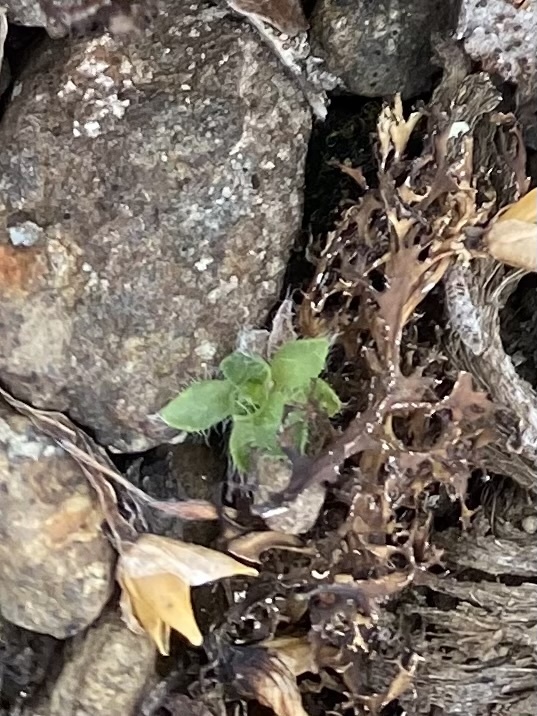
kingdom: Plantae
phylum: Tracheophyta
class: Magnoliopsida
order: Boraginales
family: Boraginaceae
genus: Eritrichium
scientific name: Eritrichium villosum
